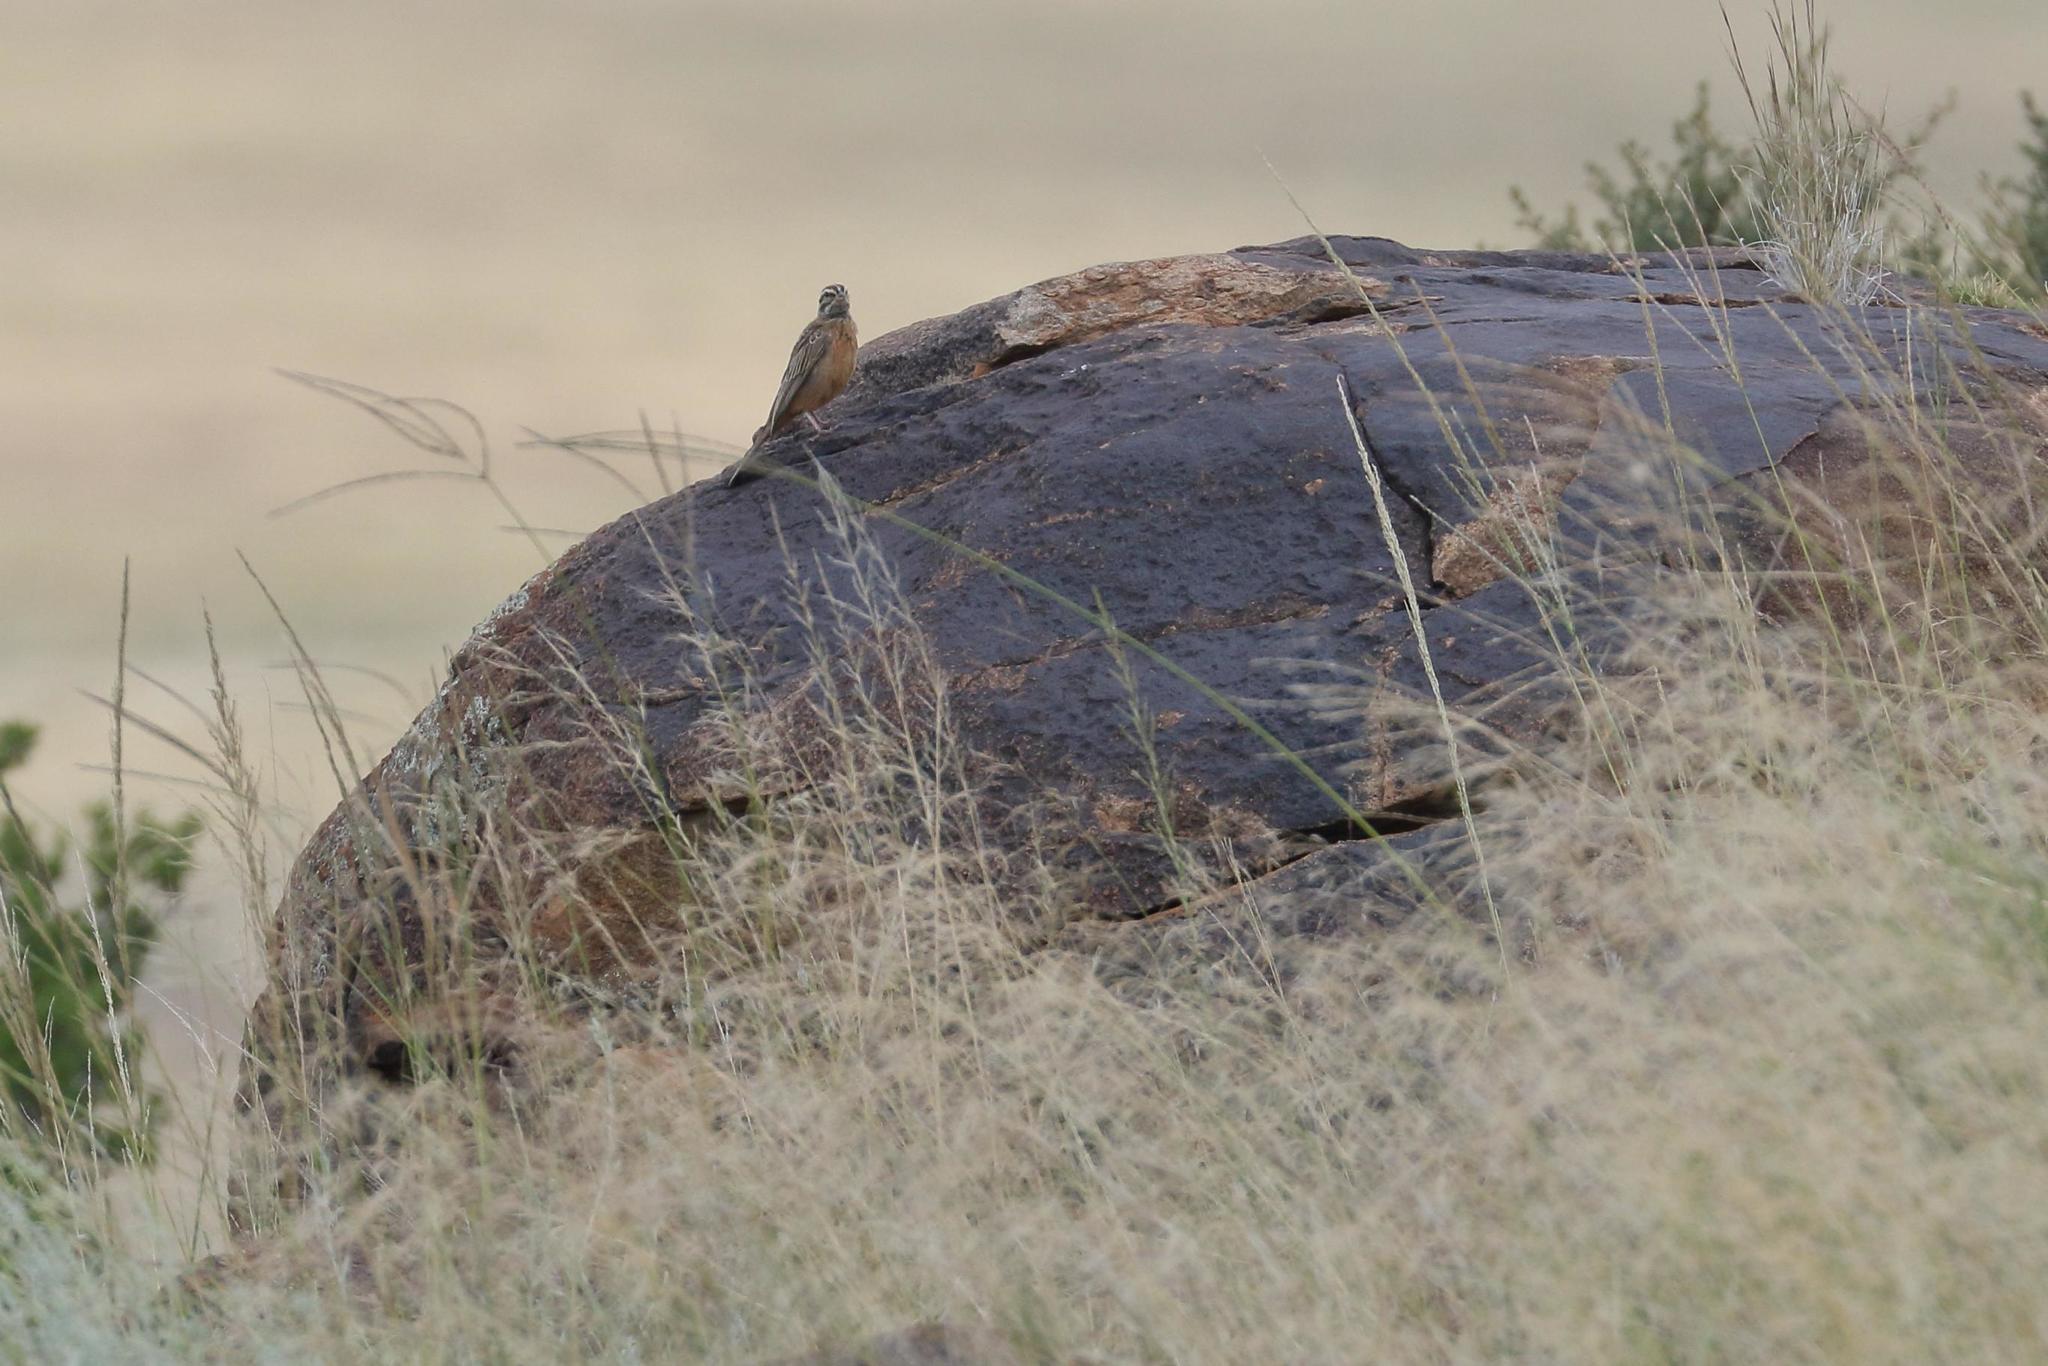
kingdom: Animalia
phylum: Chordata
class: Aves
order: Passeriformes
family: Emberizidae
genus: Emberiza
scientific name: Emberiza tahapisi
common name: Cinnamon-breasted bunting
